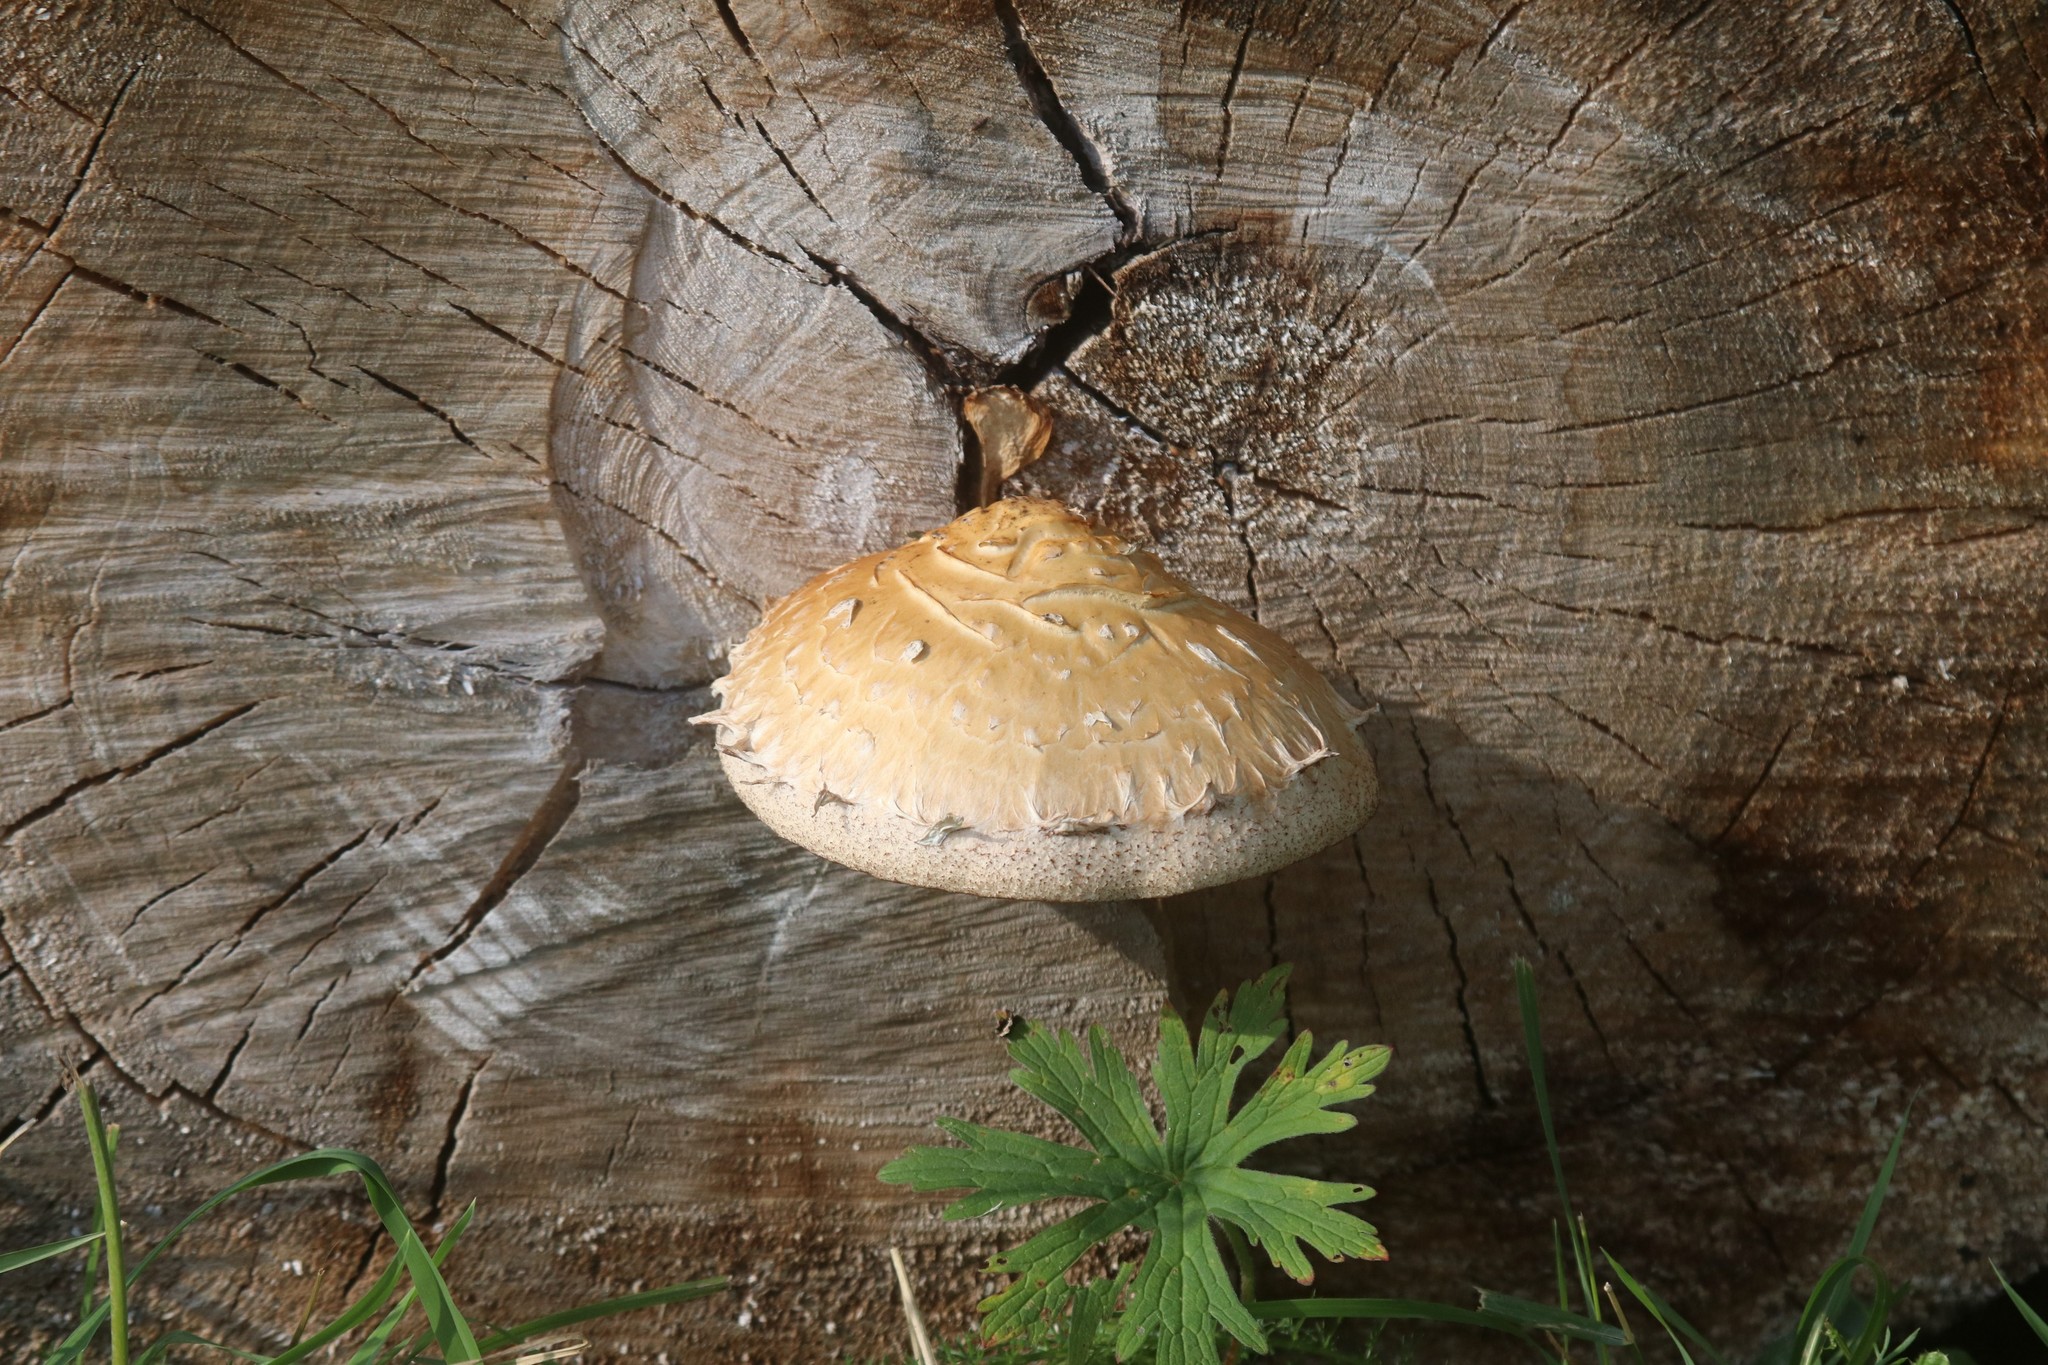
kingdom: Fungi
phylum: Basidiomycota
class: Agaricomycetes
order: Agaricales
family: Strophariaceae
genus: Pholiota
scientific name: Pholiota populnea
